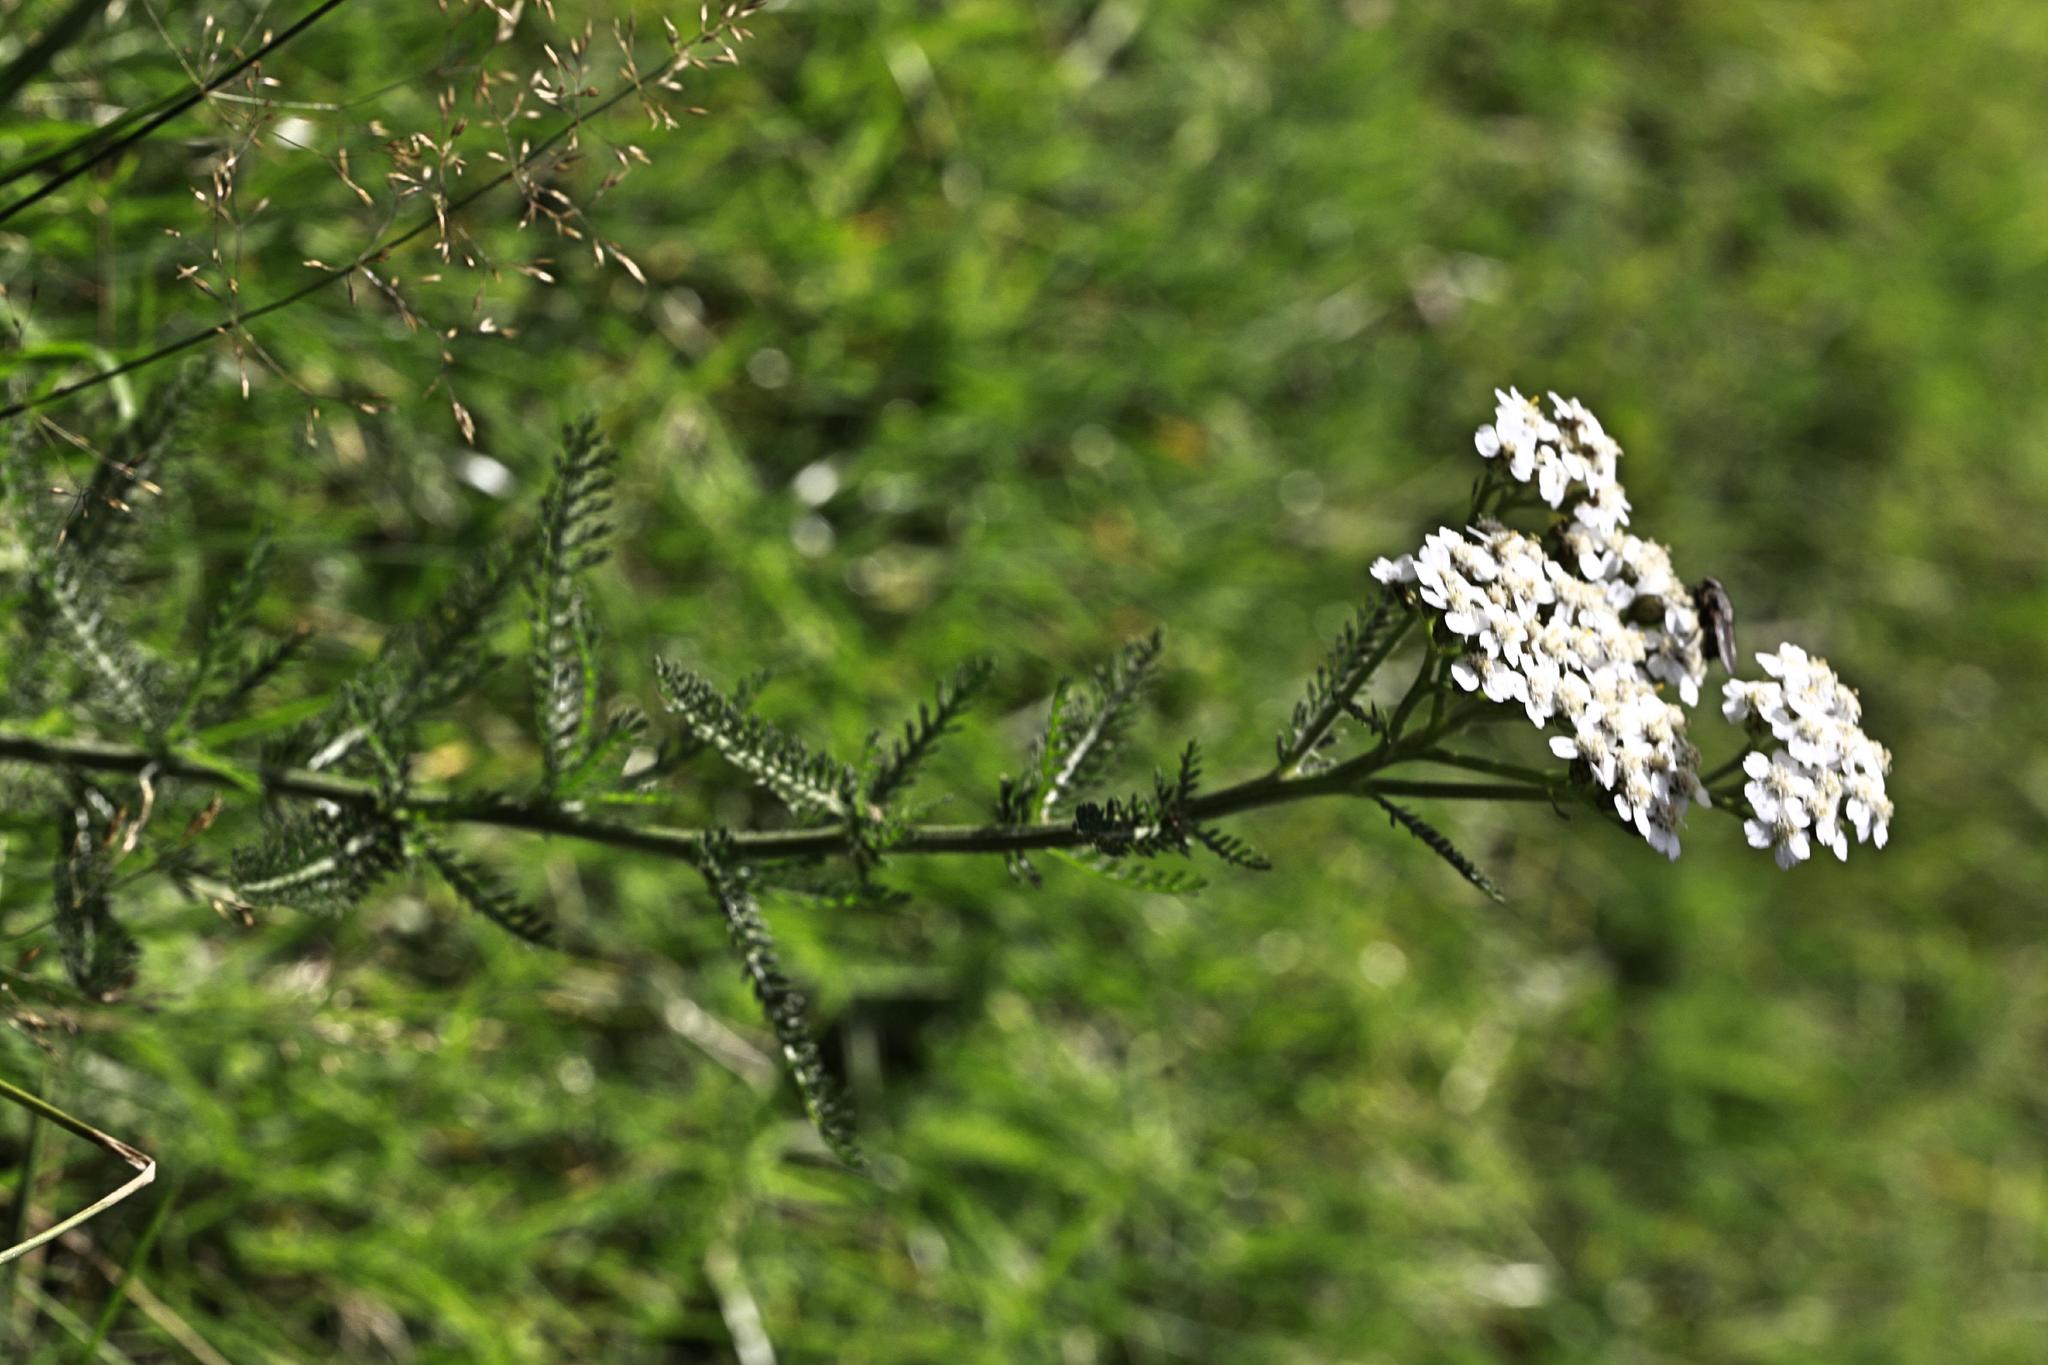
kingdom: Plantae
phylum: Tracheophyta
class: Magnoliopsida
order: Asterales
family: Asteraceae
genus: Achillea
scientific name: Achillea millefolium
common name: Yarrow
